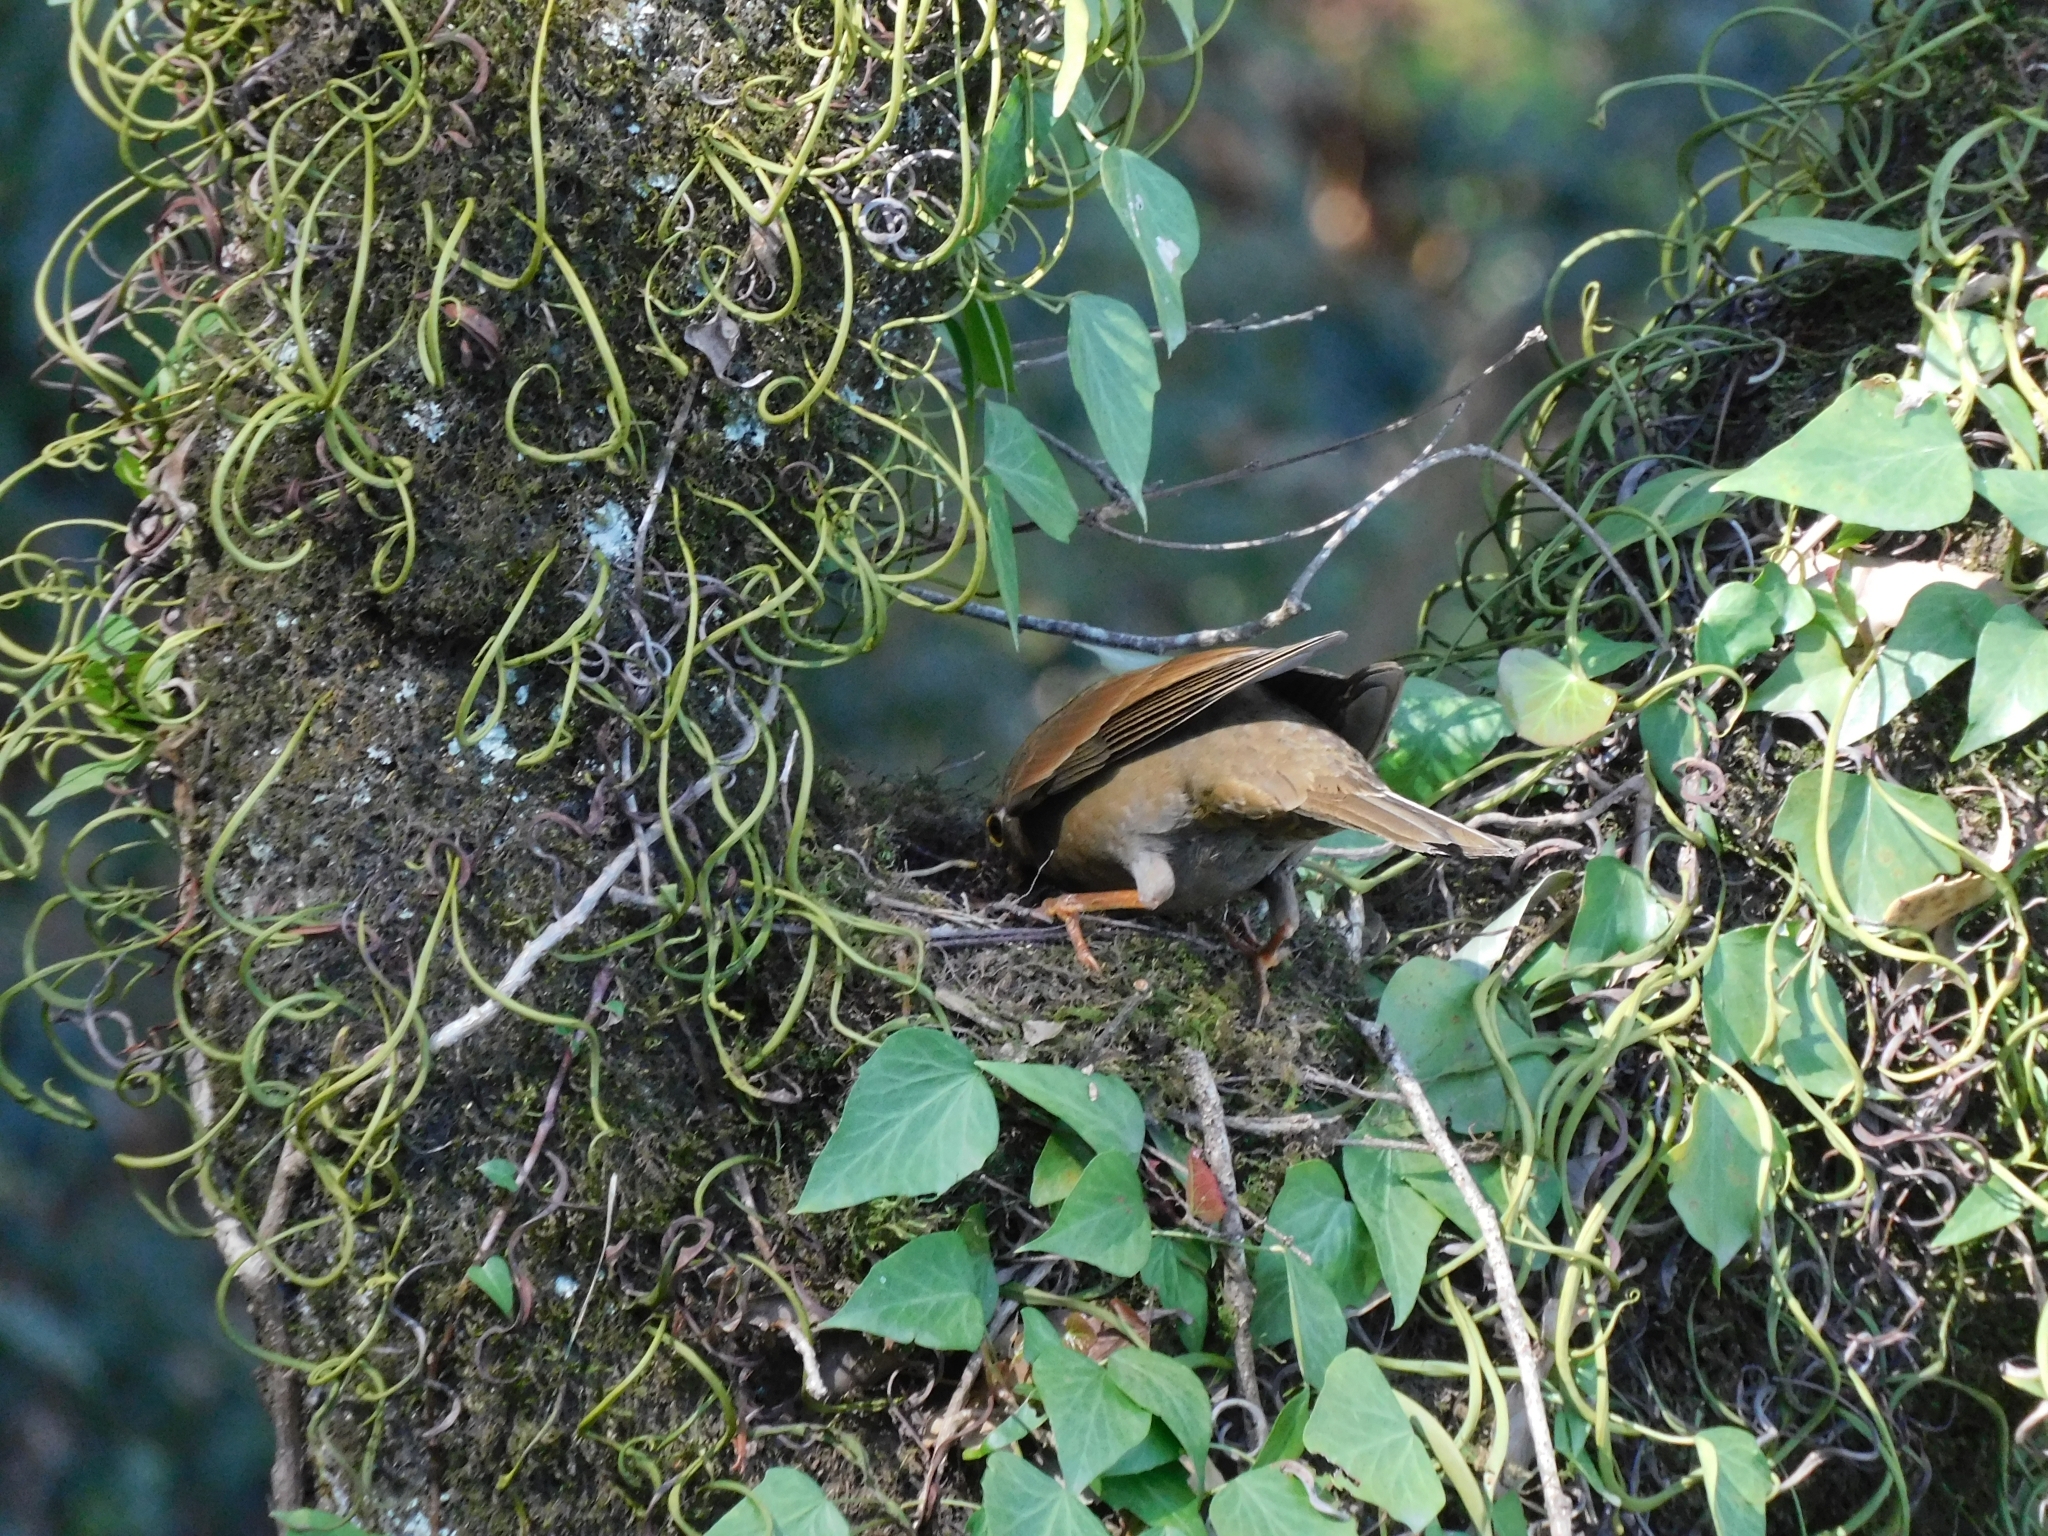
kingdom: Animalia
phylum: Chordata
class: Aves
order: Passeriformes
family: Turdidae
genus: Turdus
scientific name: Turdus boulboul
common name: Grey-winged blackbird
